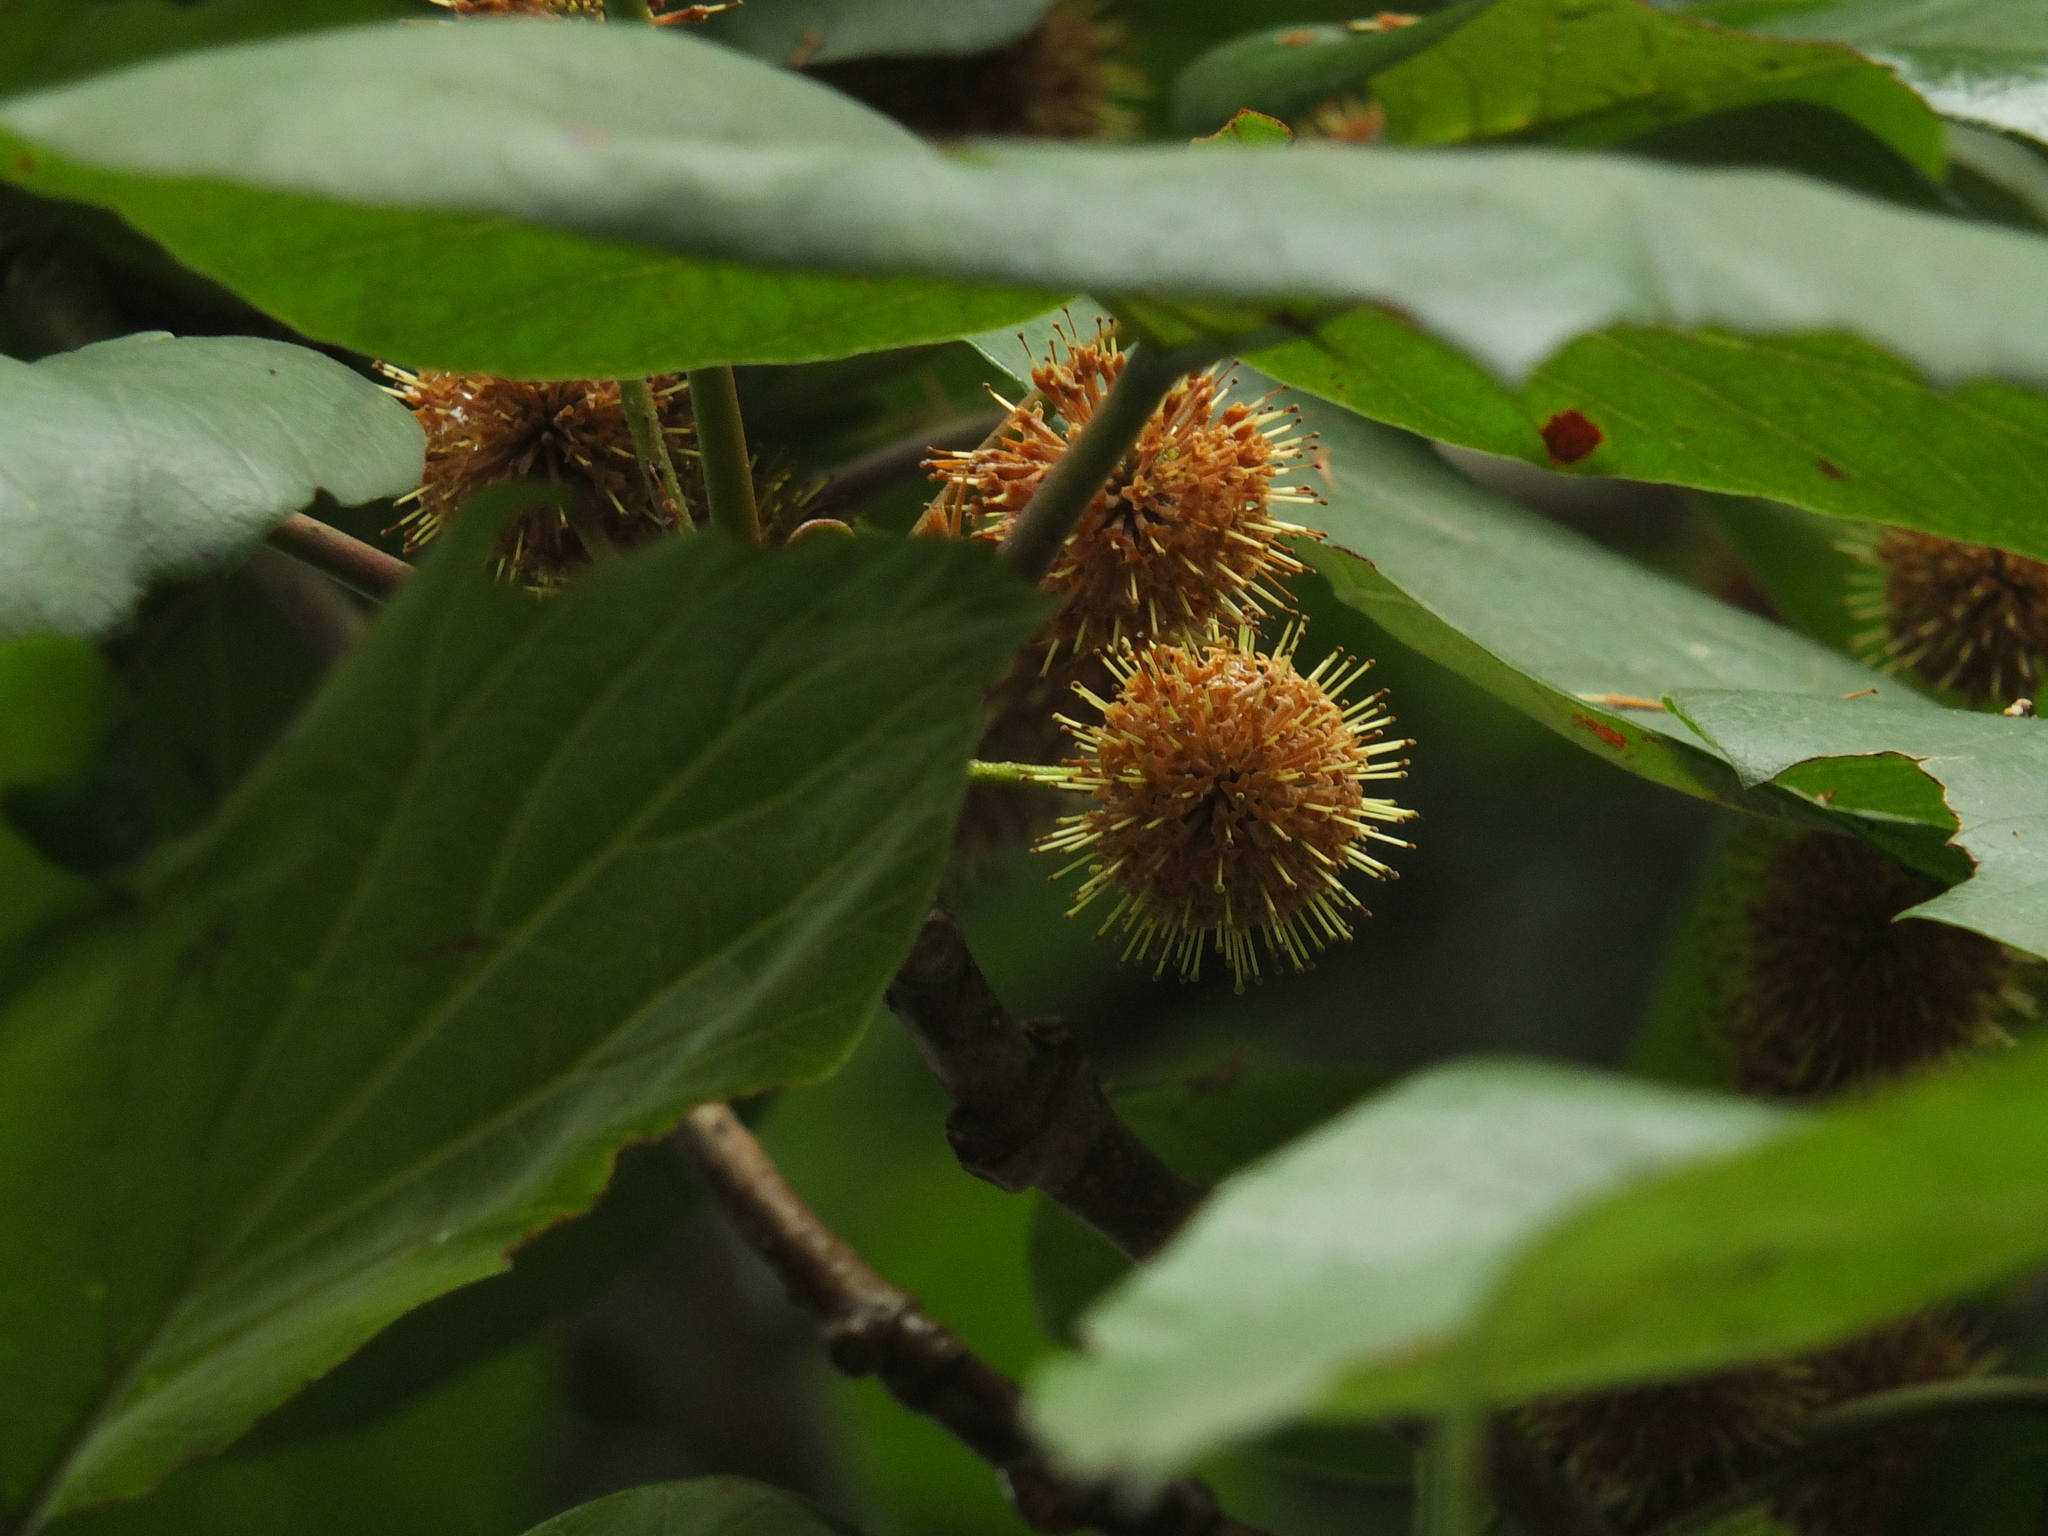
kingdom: Plantae
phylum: Tracheophyta
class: Magnoliopsida
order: Gentianales
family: Rubiaceae
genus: Adina
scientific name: Adina cordifolia
